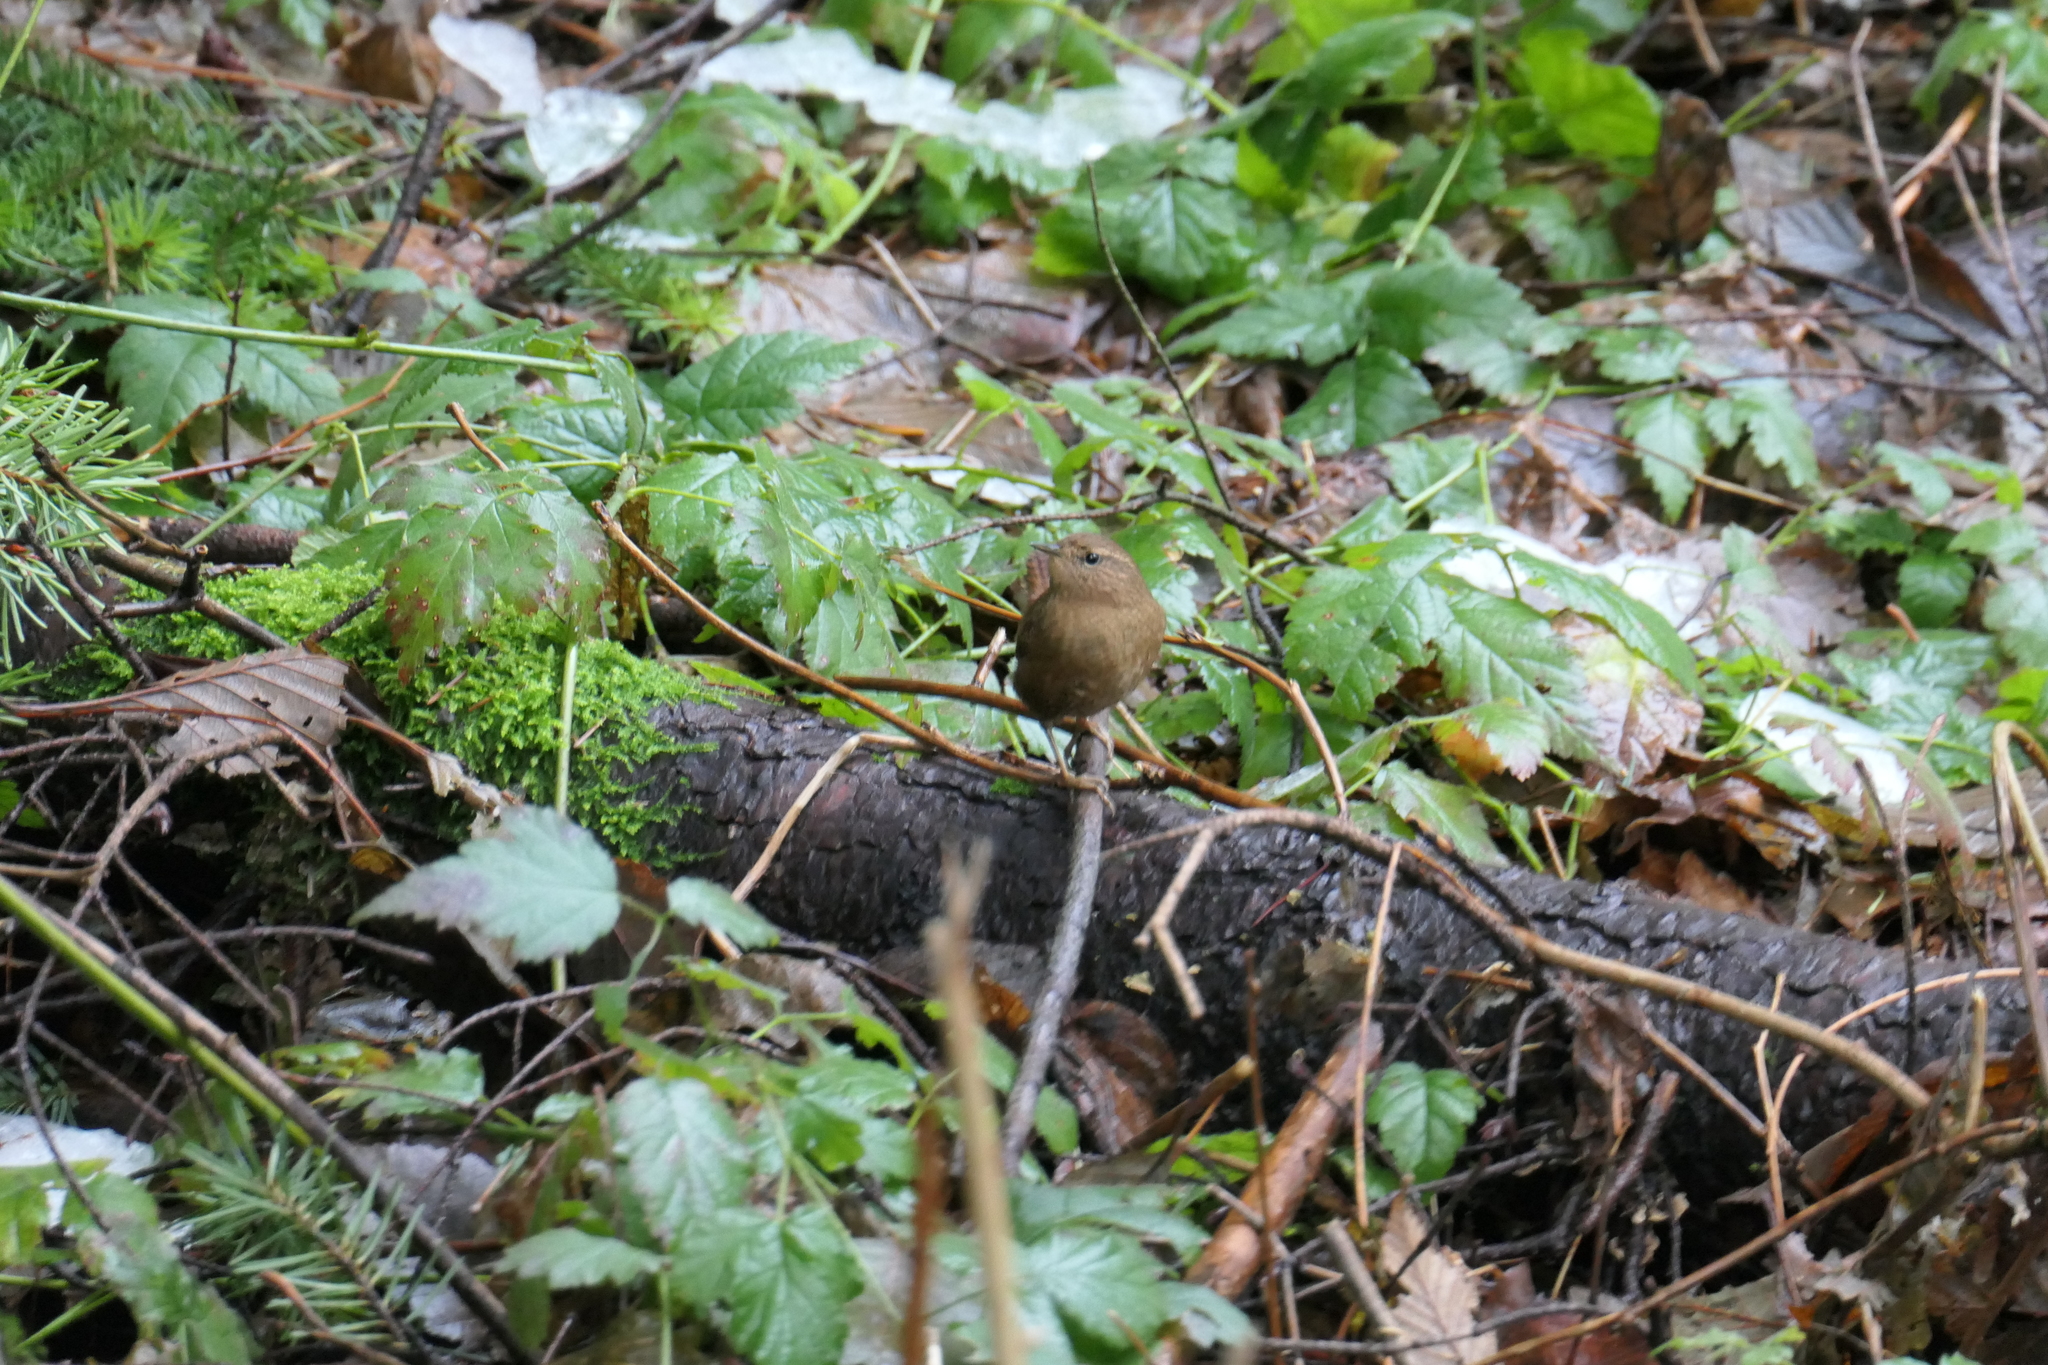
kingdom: Animalia
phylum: Chordata
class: Aves
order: Passeriformes
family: Troglodytidae
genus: Troglodytes
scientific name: Troglodytes pacificus
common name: Pacific wren
